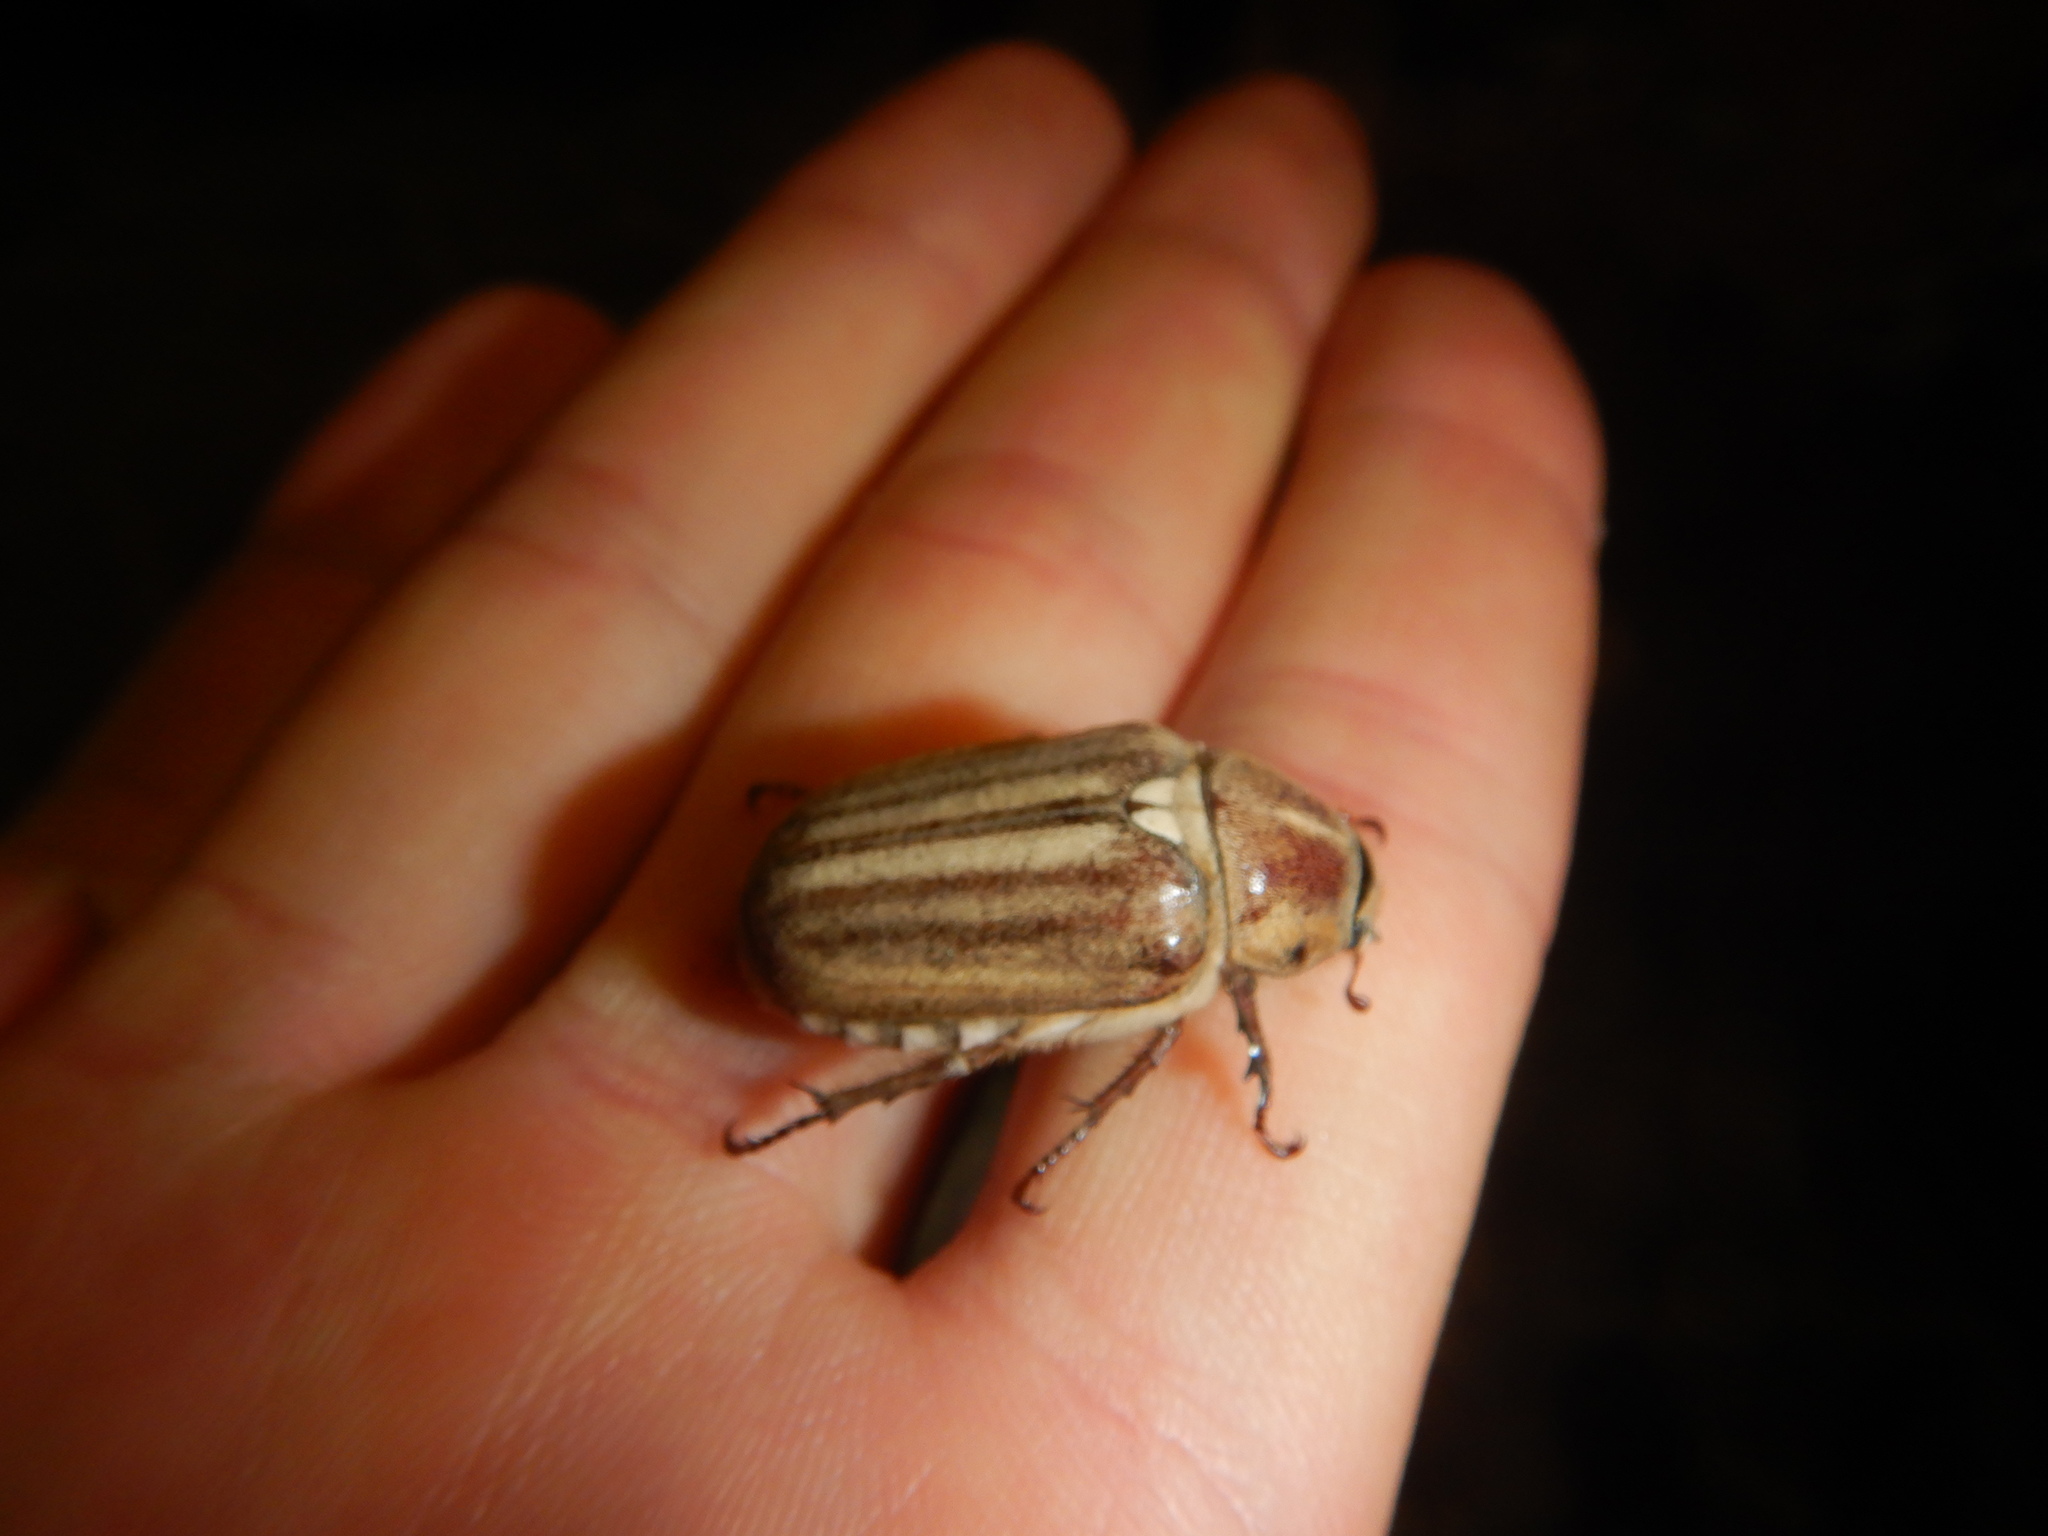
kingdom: Animalia
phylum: Arthropoda
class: Insecta
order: Coleoptera
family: Scarabaeidae
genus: Anoxia
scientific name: Anoxia matutinalis
